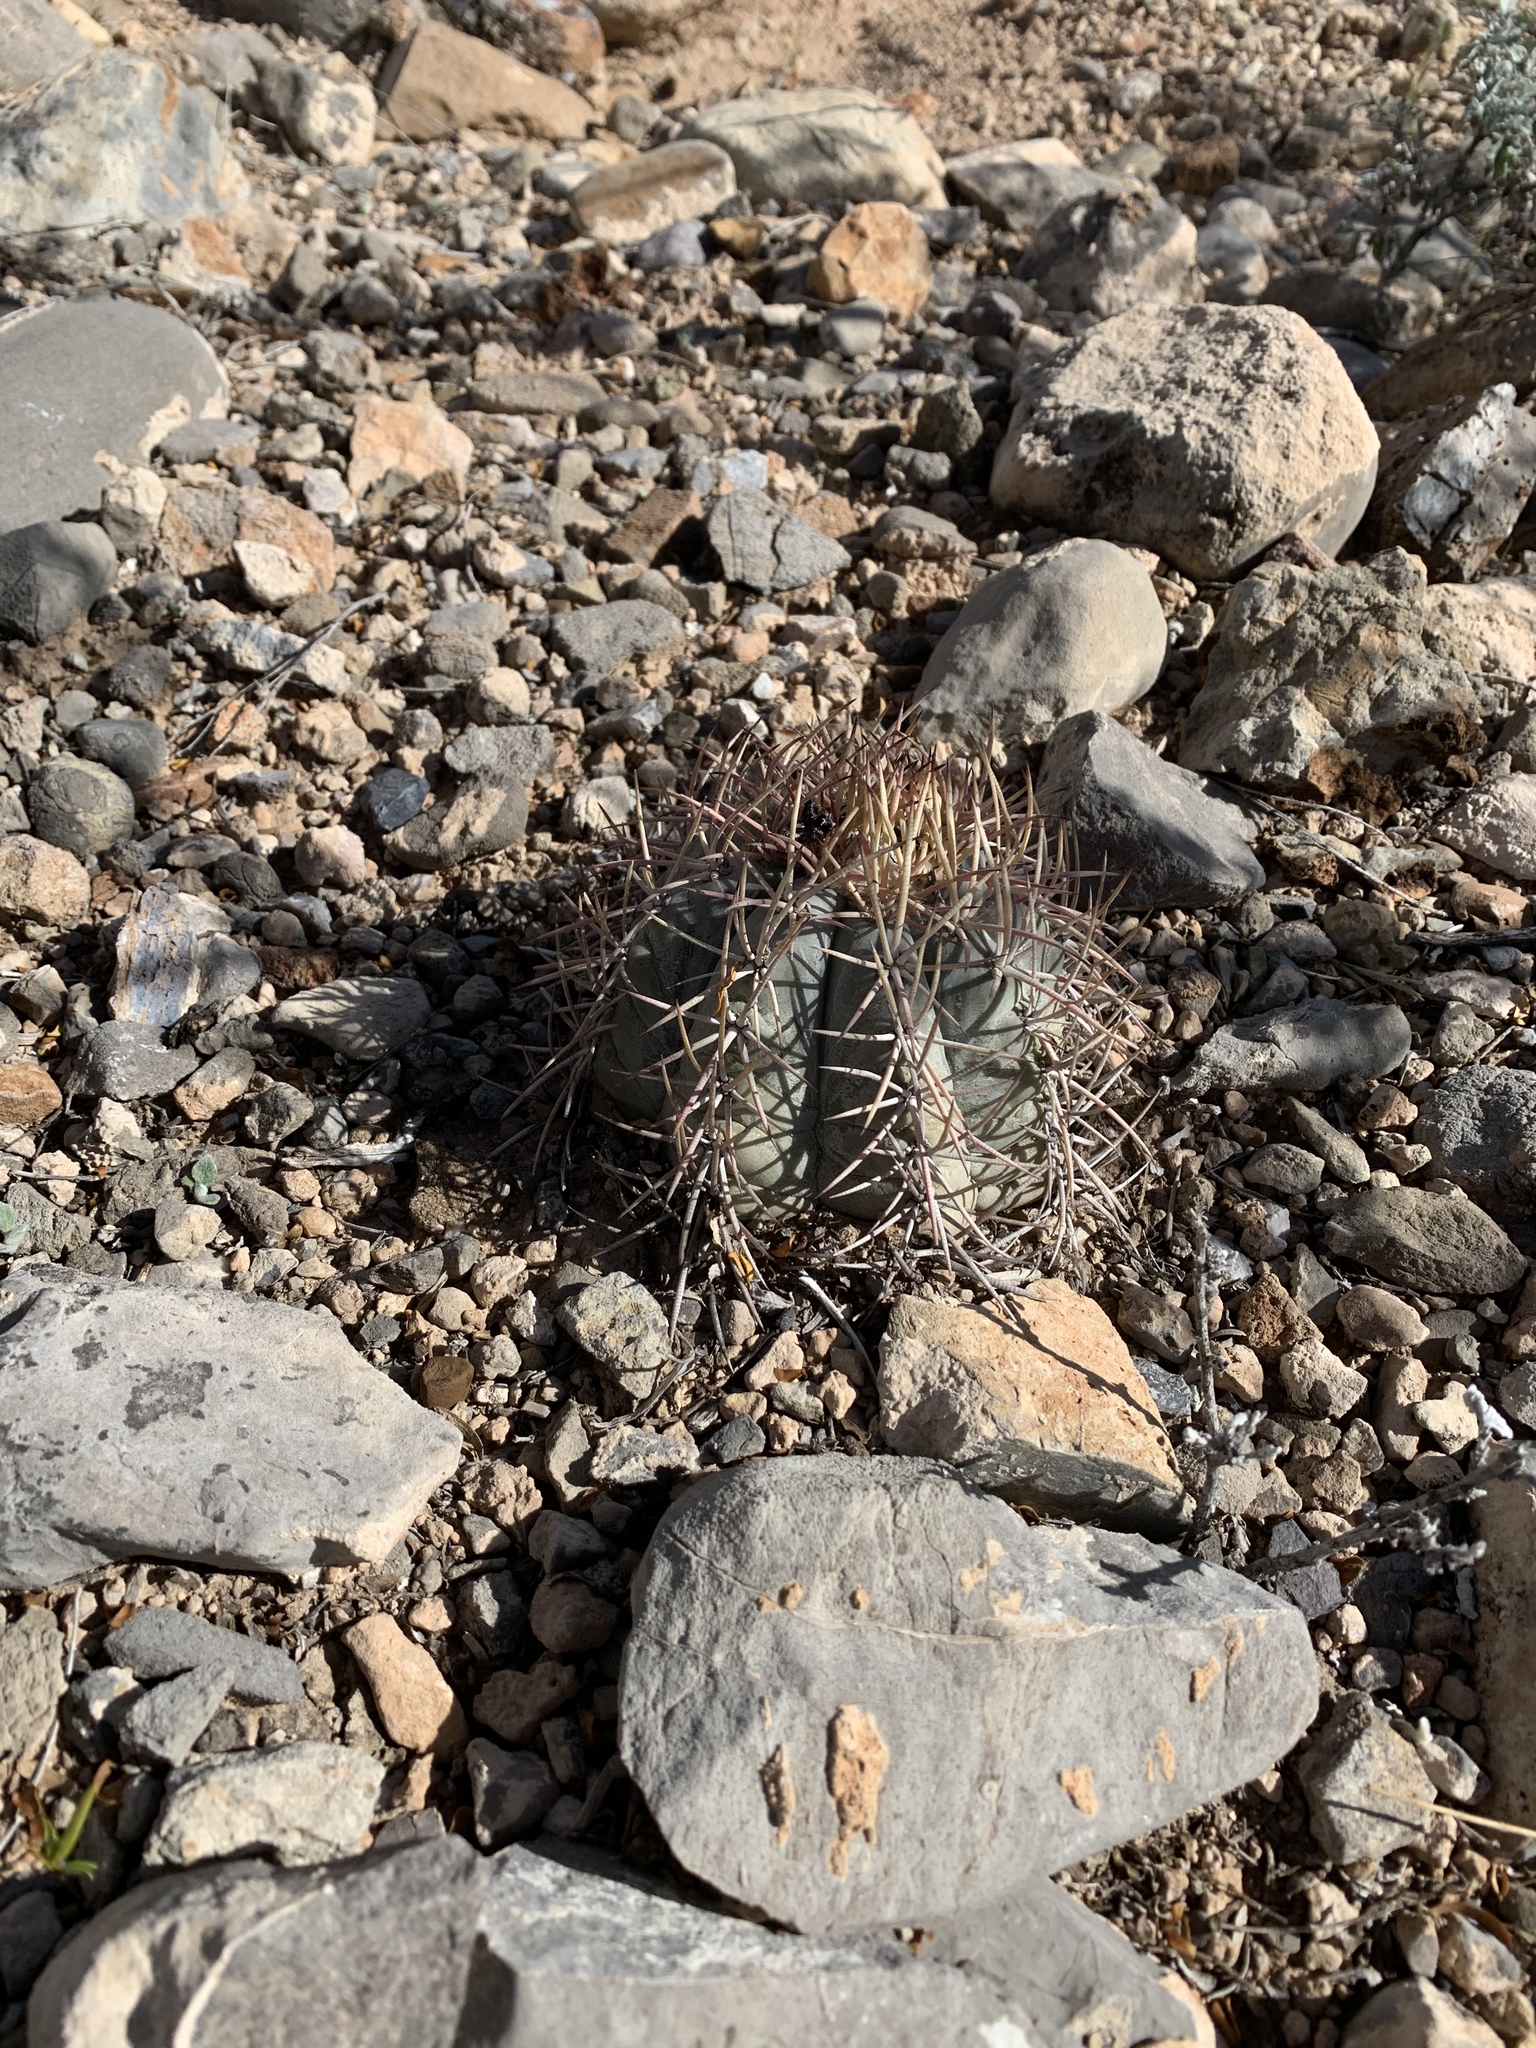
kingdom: Plantae
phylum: Tracheophyta
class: Magnoliopsida
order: Caryophyllales
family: Cactaceae
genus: Echinocactus
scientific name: Echinocactus horizonthalonius
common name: Devilshead
